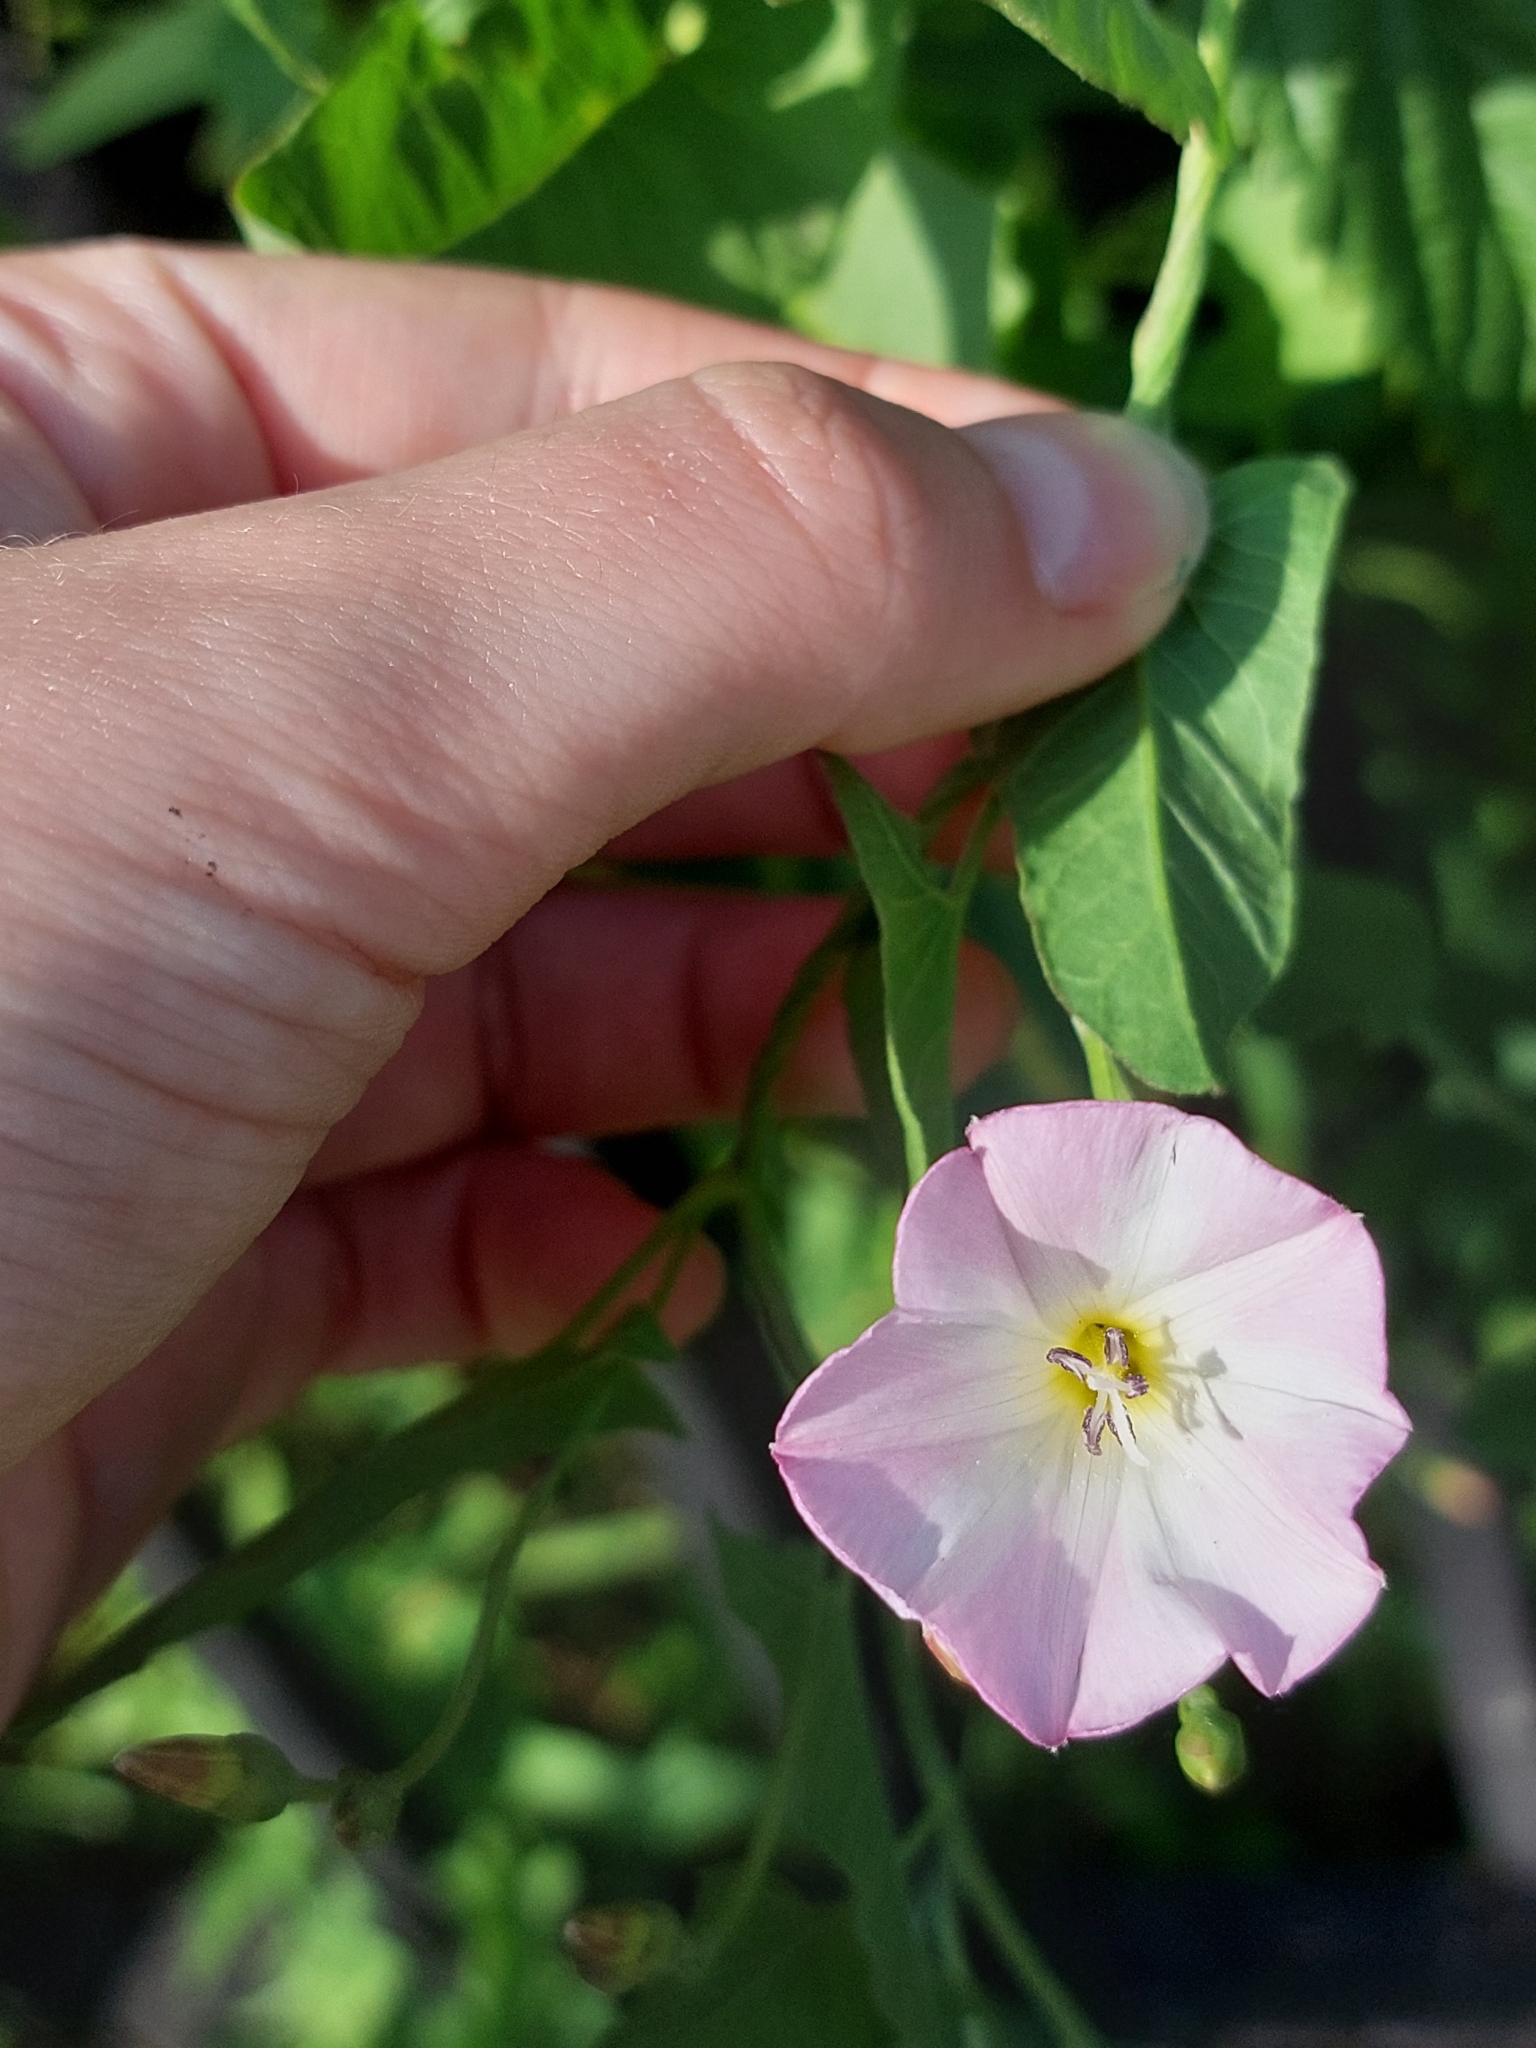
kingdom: Plantae
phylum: Tracheophyta
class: Magnoliopsida
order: Solanales
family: Convolvulaceae
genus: Convolvulus
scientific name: Convolvulus arvensis
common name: Field bindweed
